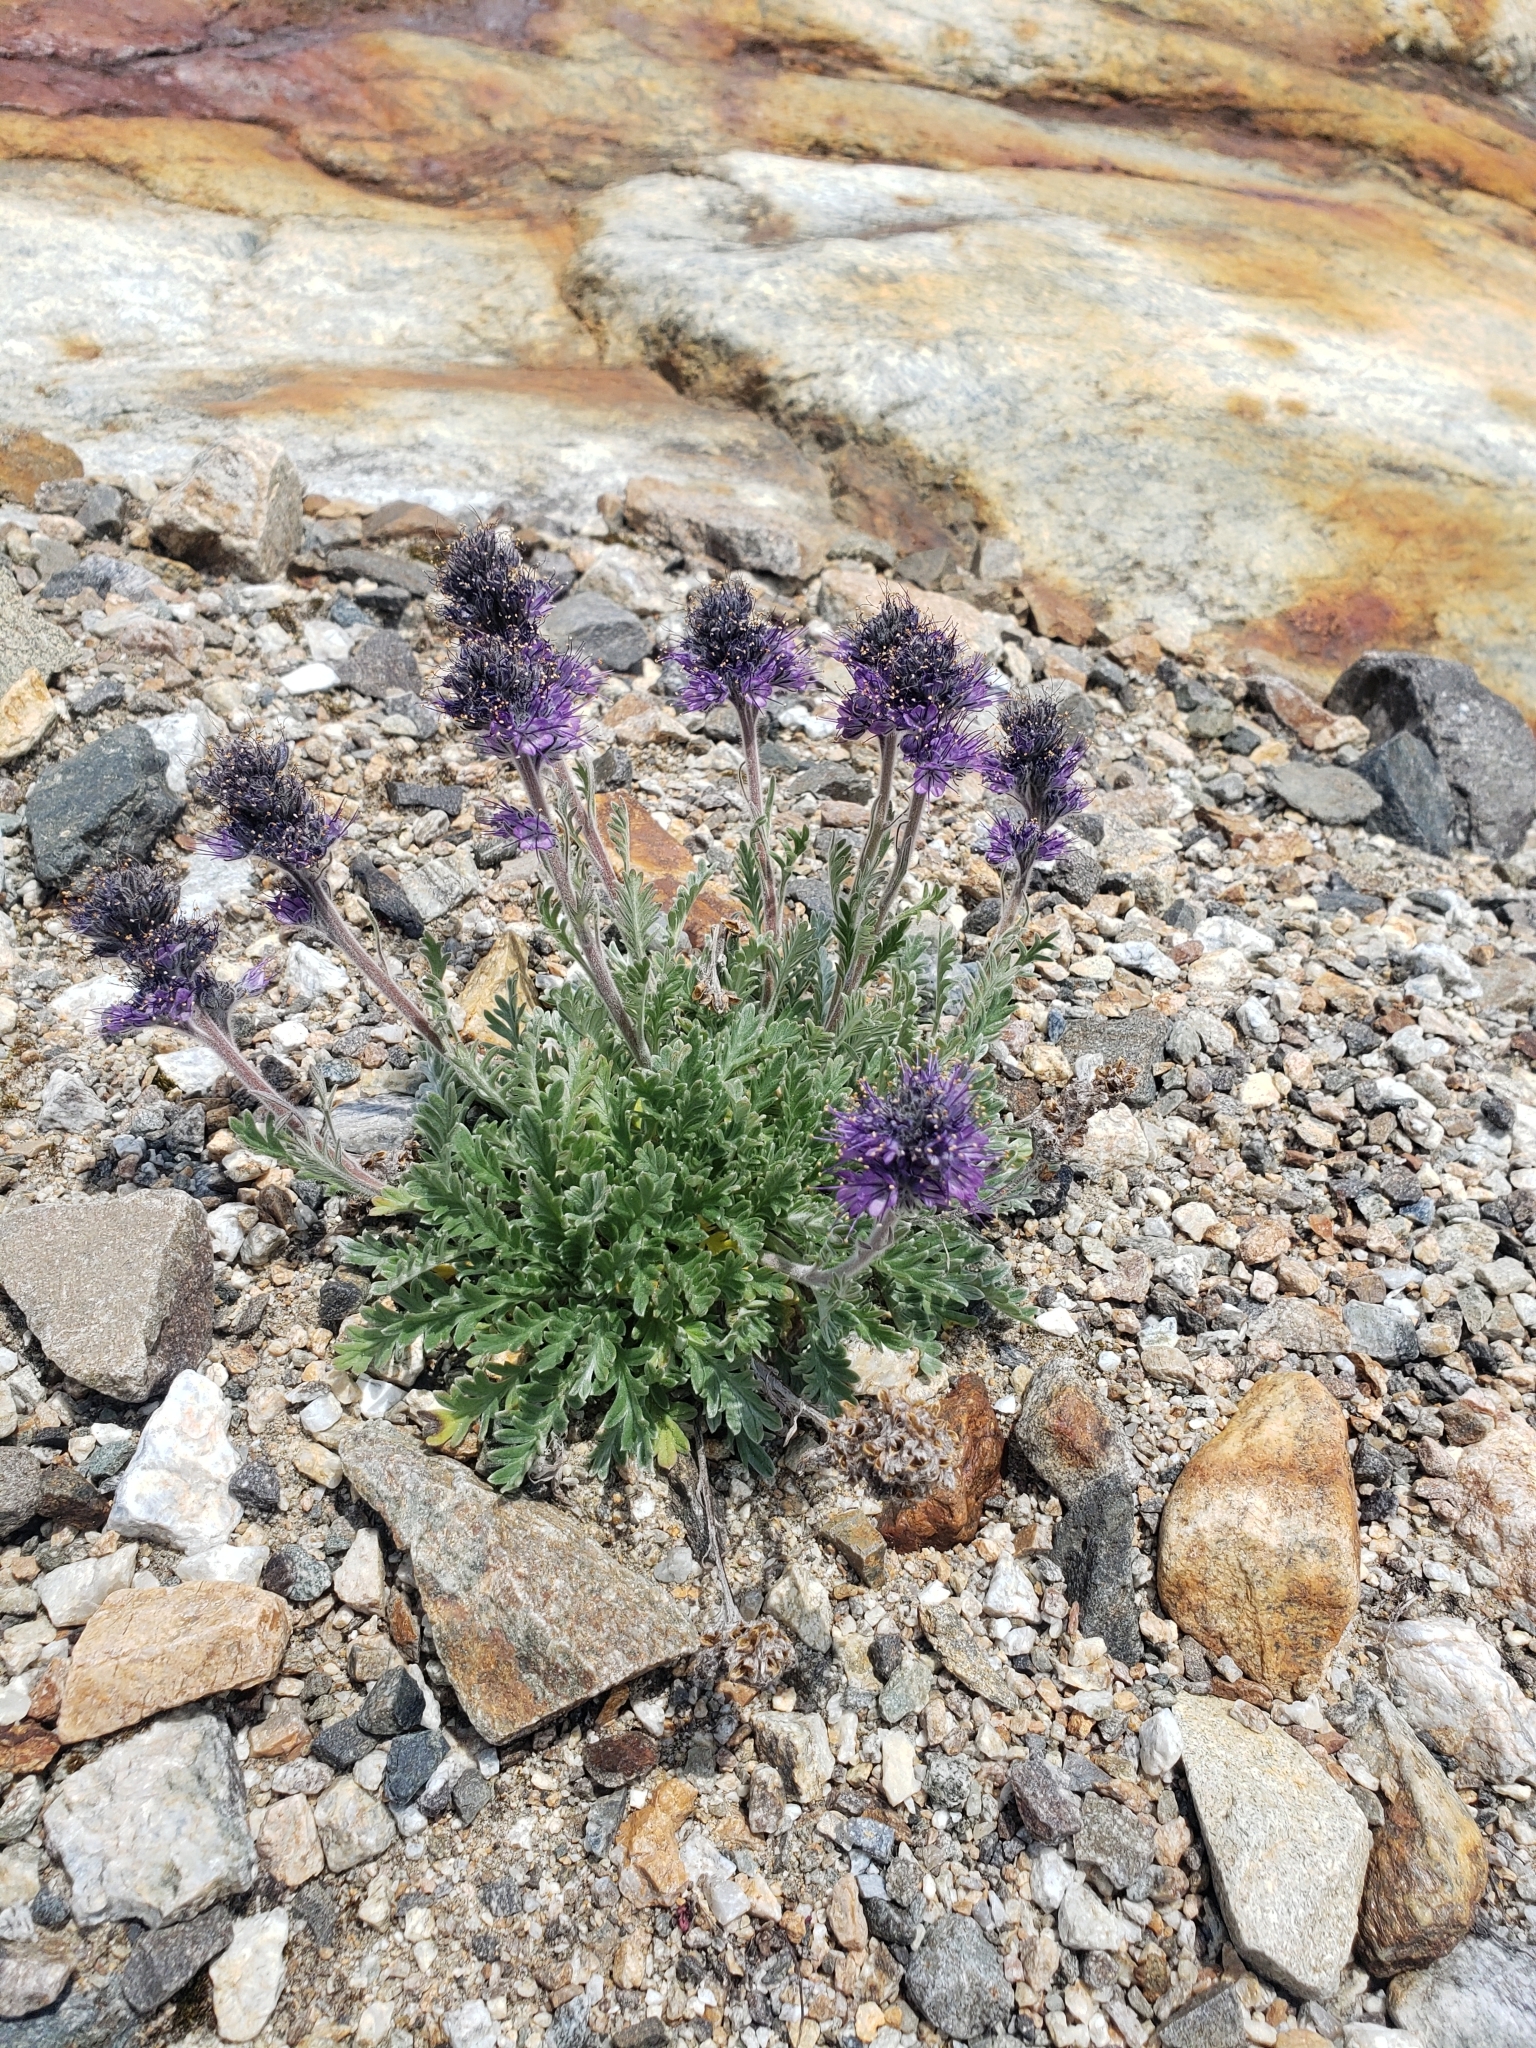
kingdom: Plantae
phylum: Tracheophyta
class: Magnoliopsida
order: Boraginales
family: Hydrophyllaceae
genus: Phacelia
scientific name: Phacelia sericea
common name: Silky phacelia
